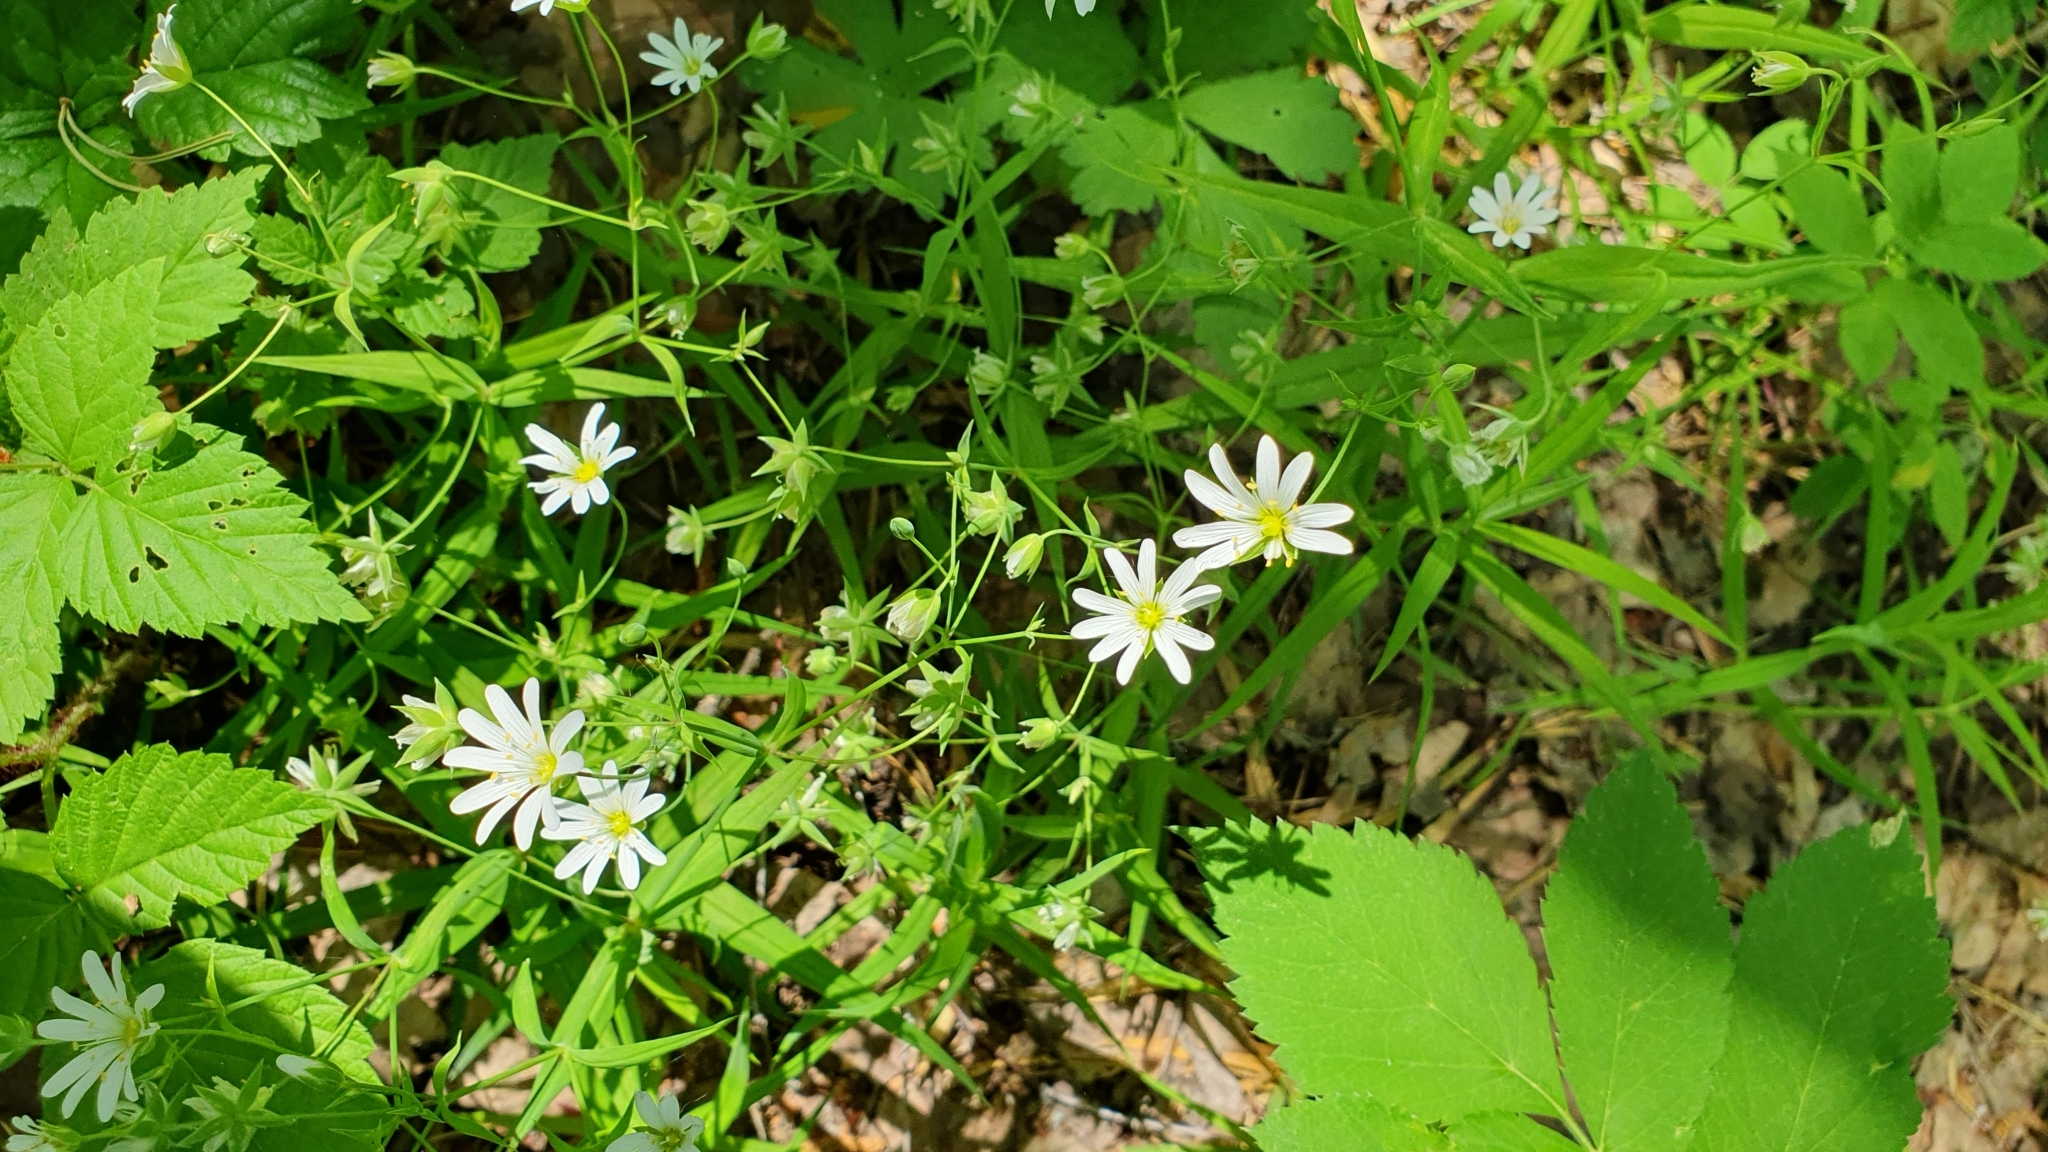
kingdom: Plantae
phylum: Tracheophyta
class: Magnoliopsida
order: Caryophyllales
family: Caryophyllaceae
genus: Rabelera
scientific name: Rabelera holostea
